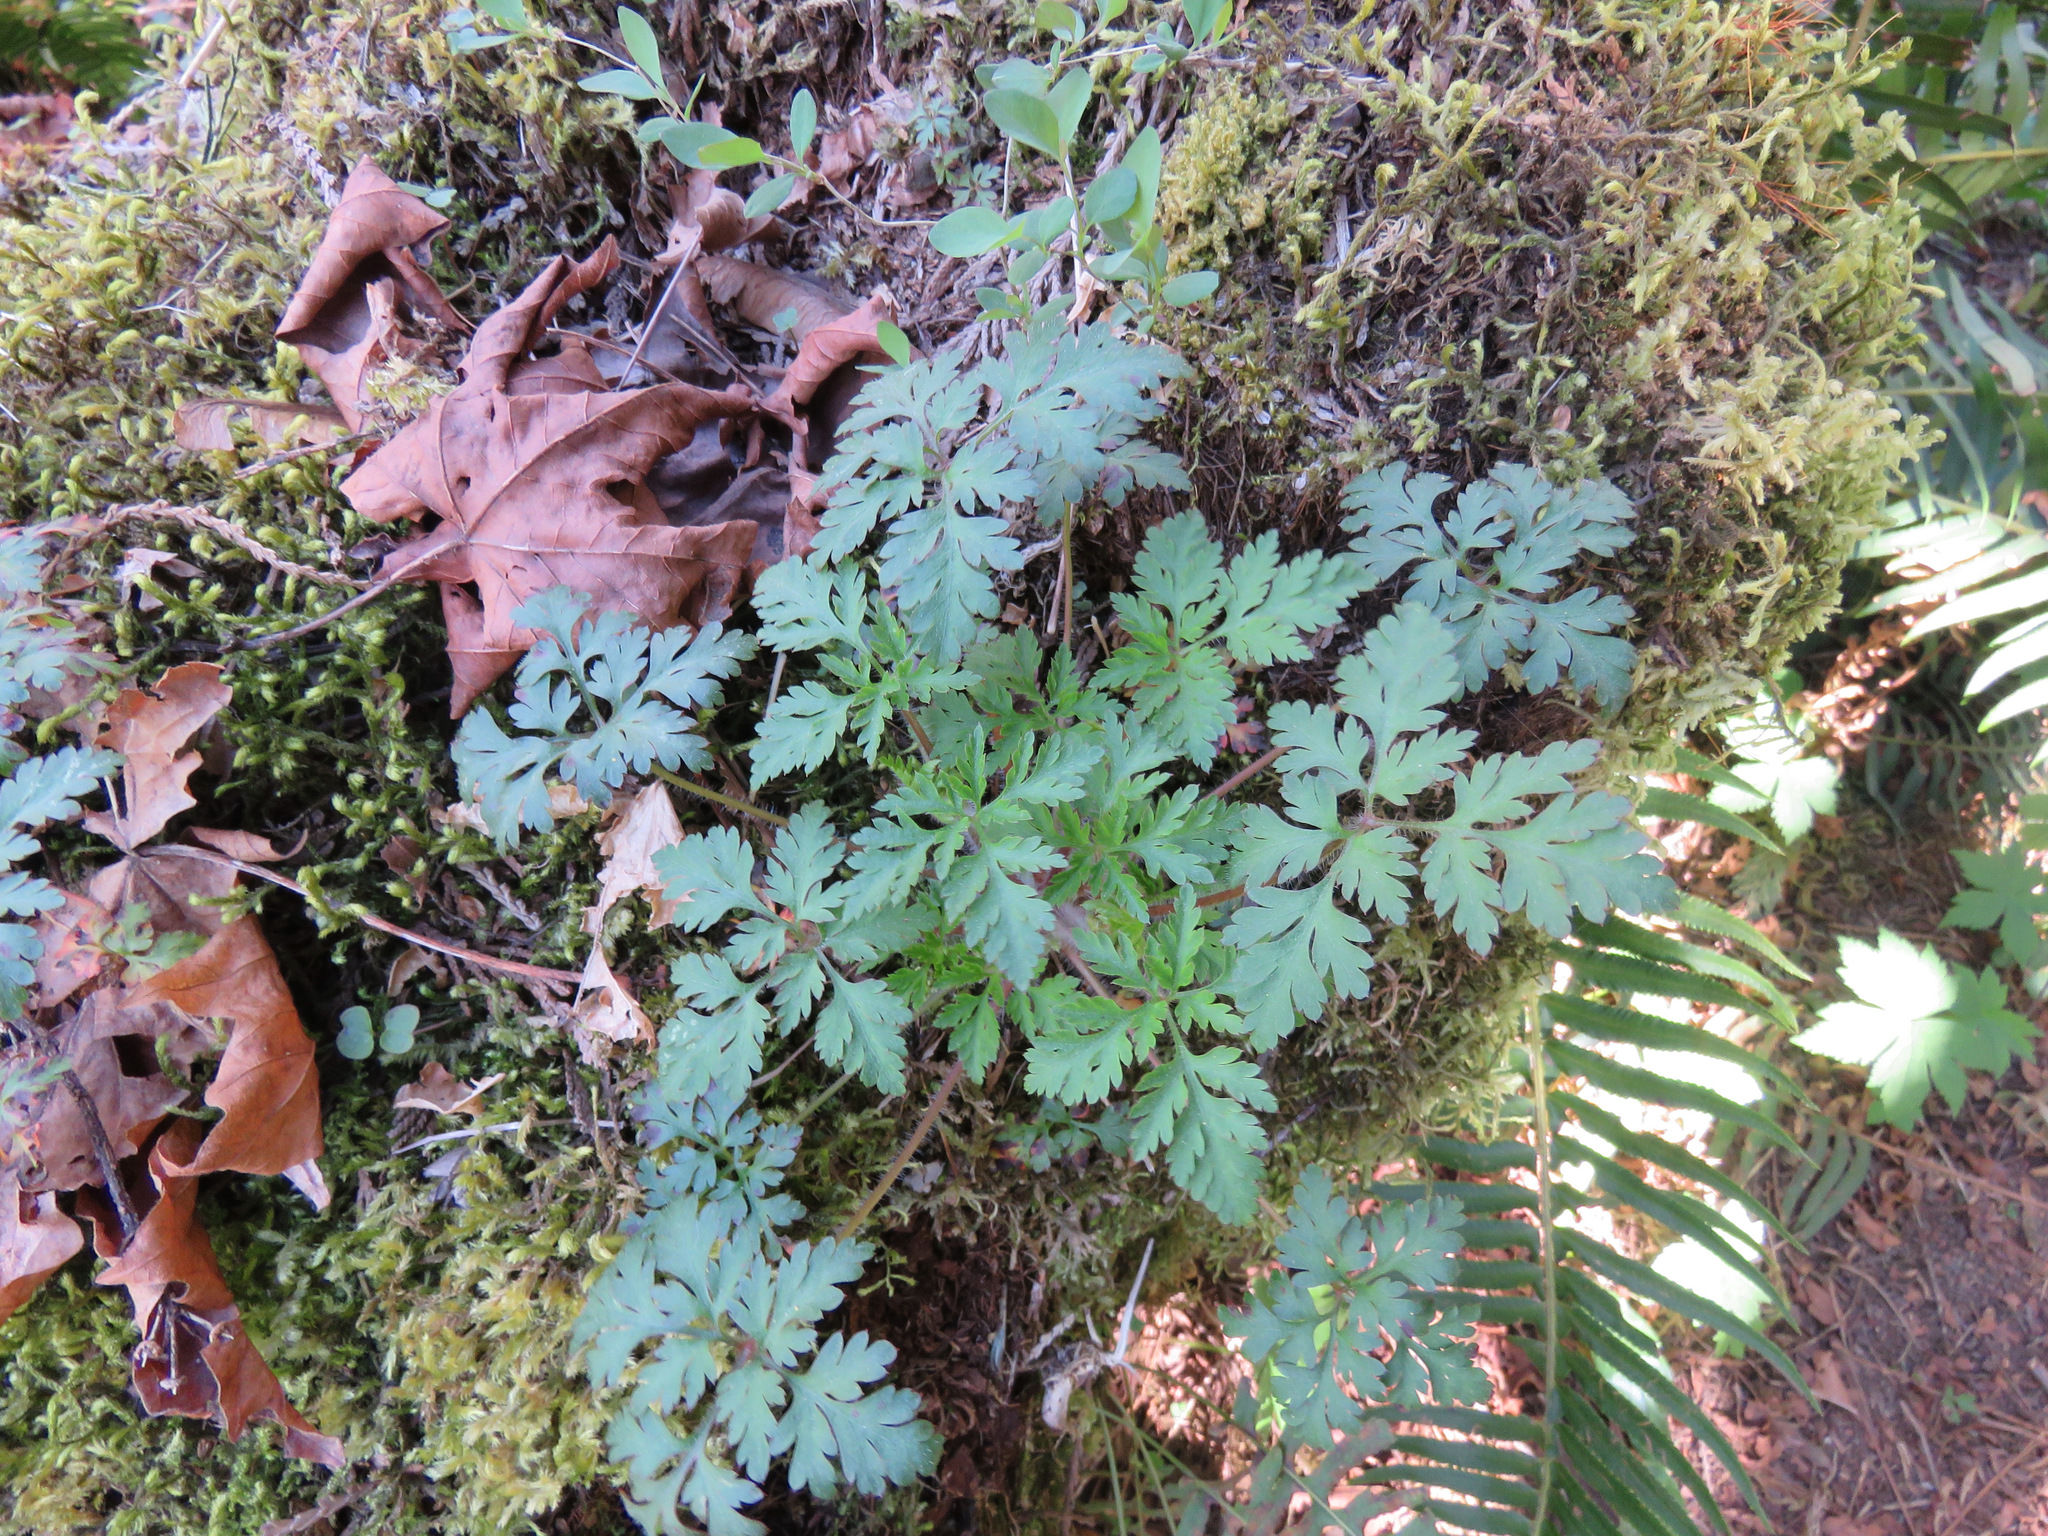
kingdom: Plantae
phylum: Tracheophyta
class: Magnoliopsida
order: Geraniales
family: Geraniaceae
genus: Geranium
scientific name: Geranium robertianum
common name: Herb-robert
